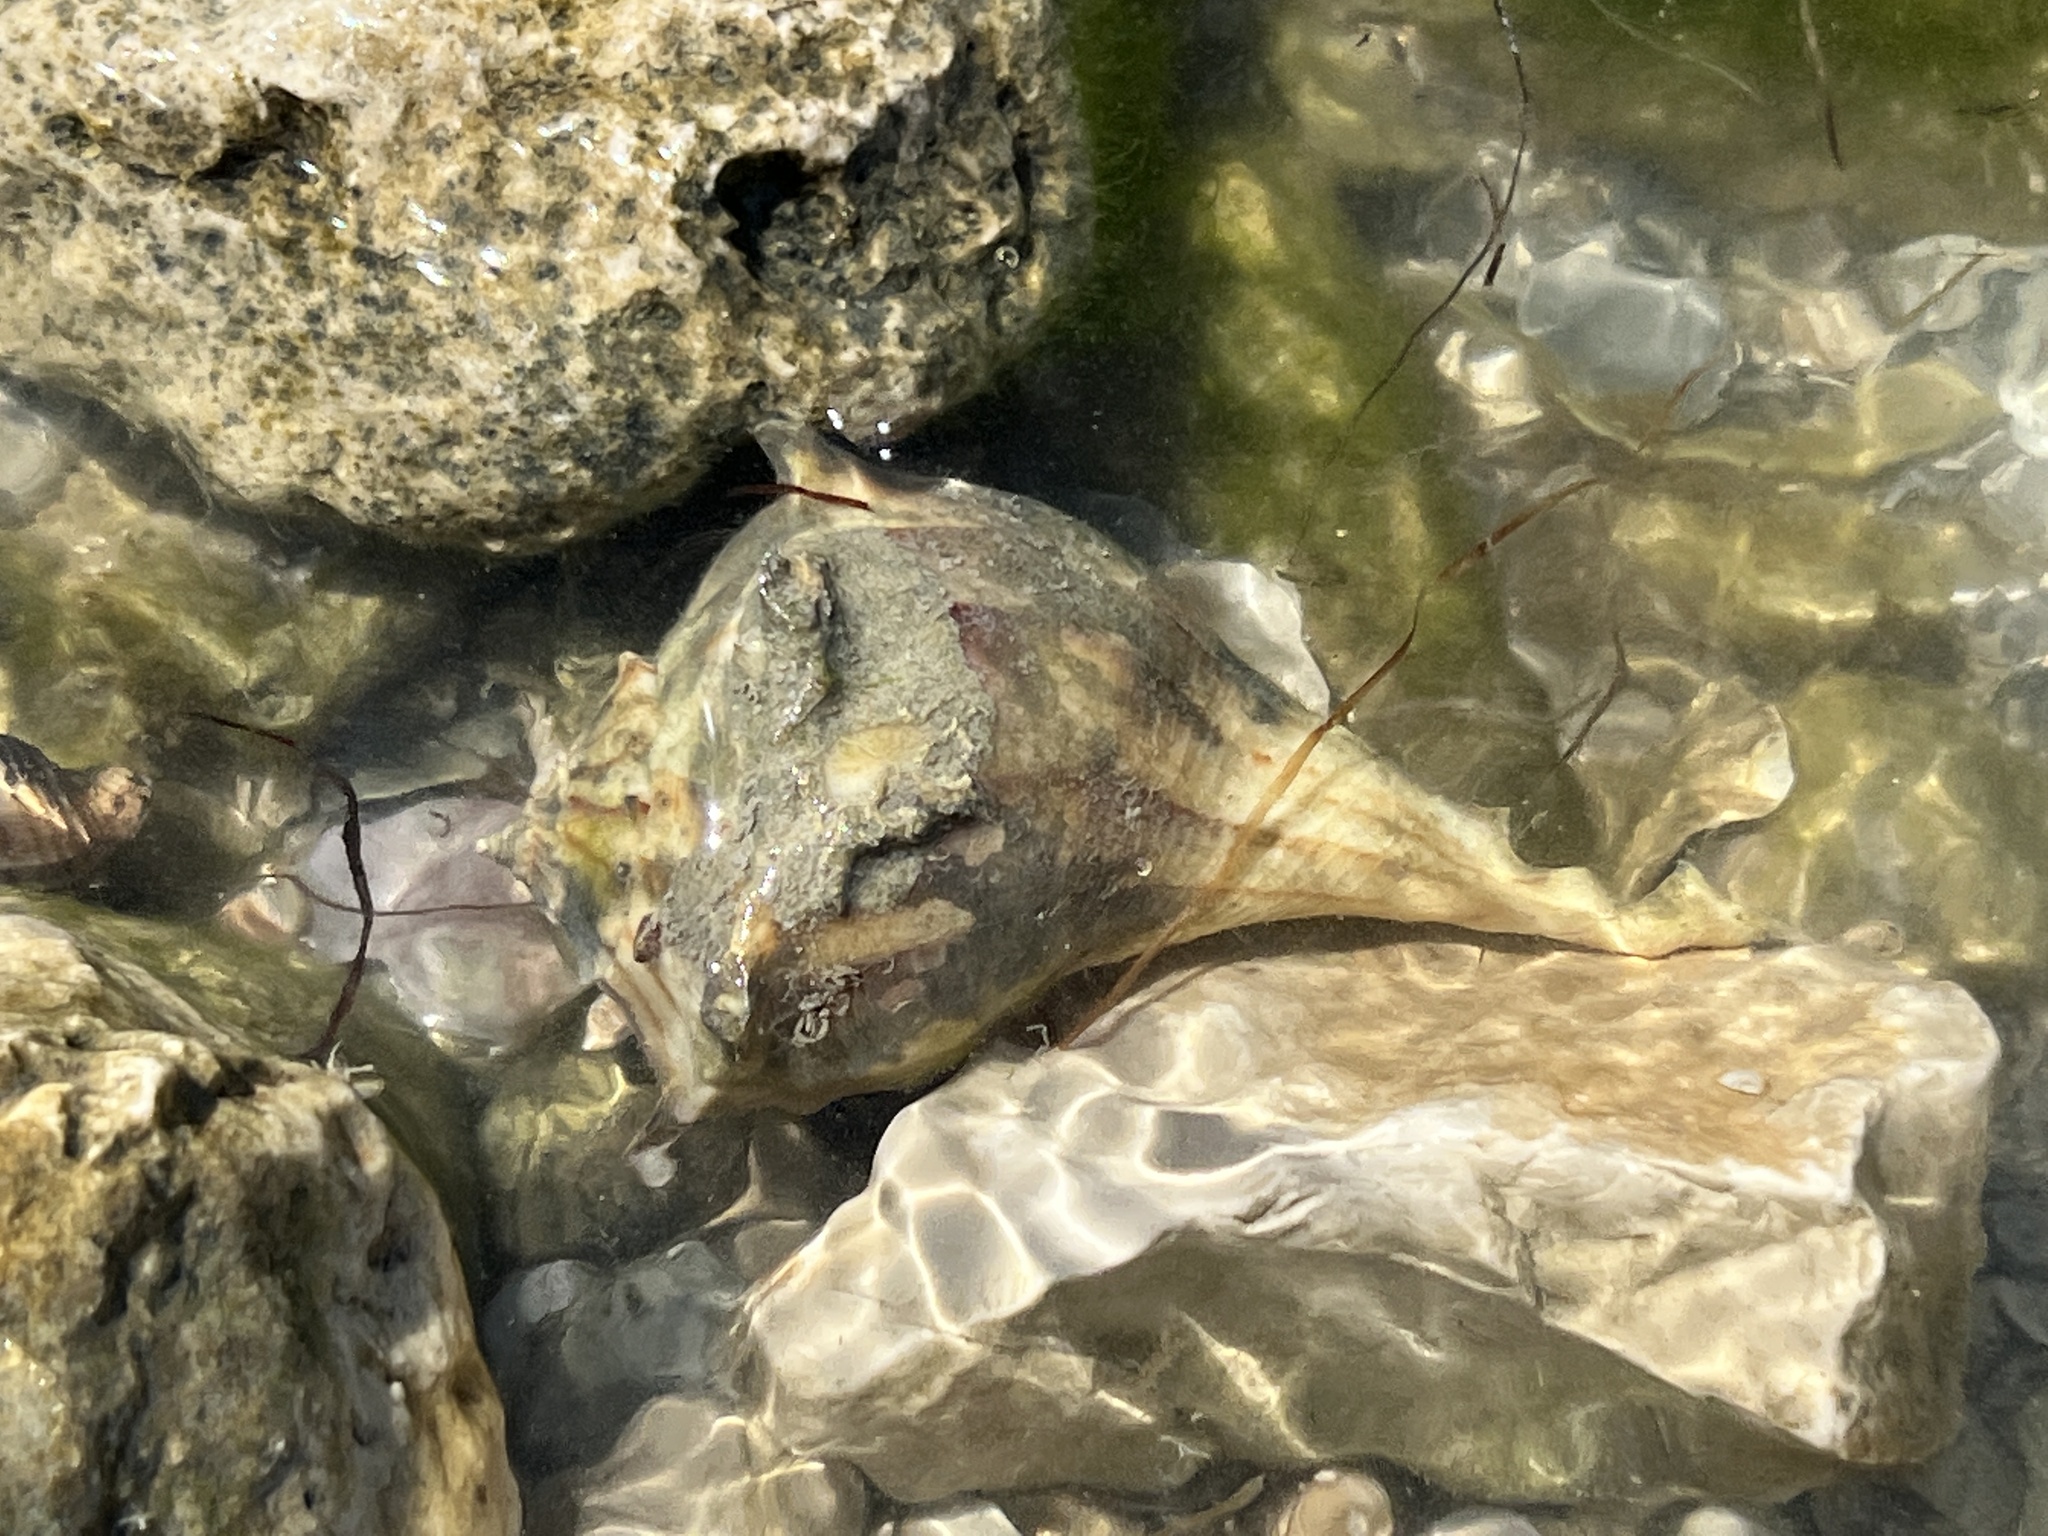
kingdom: Animalia
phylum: Mollusca
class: Gastropoda
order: Neogastropoda
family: Busyconidae
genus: Sinistrofulgur
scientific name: Sinistrofulgur pulleyi
